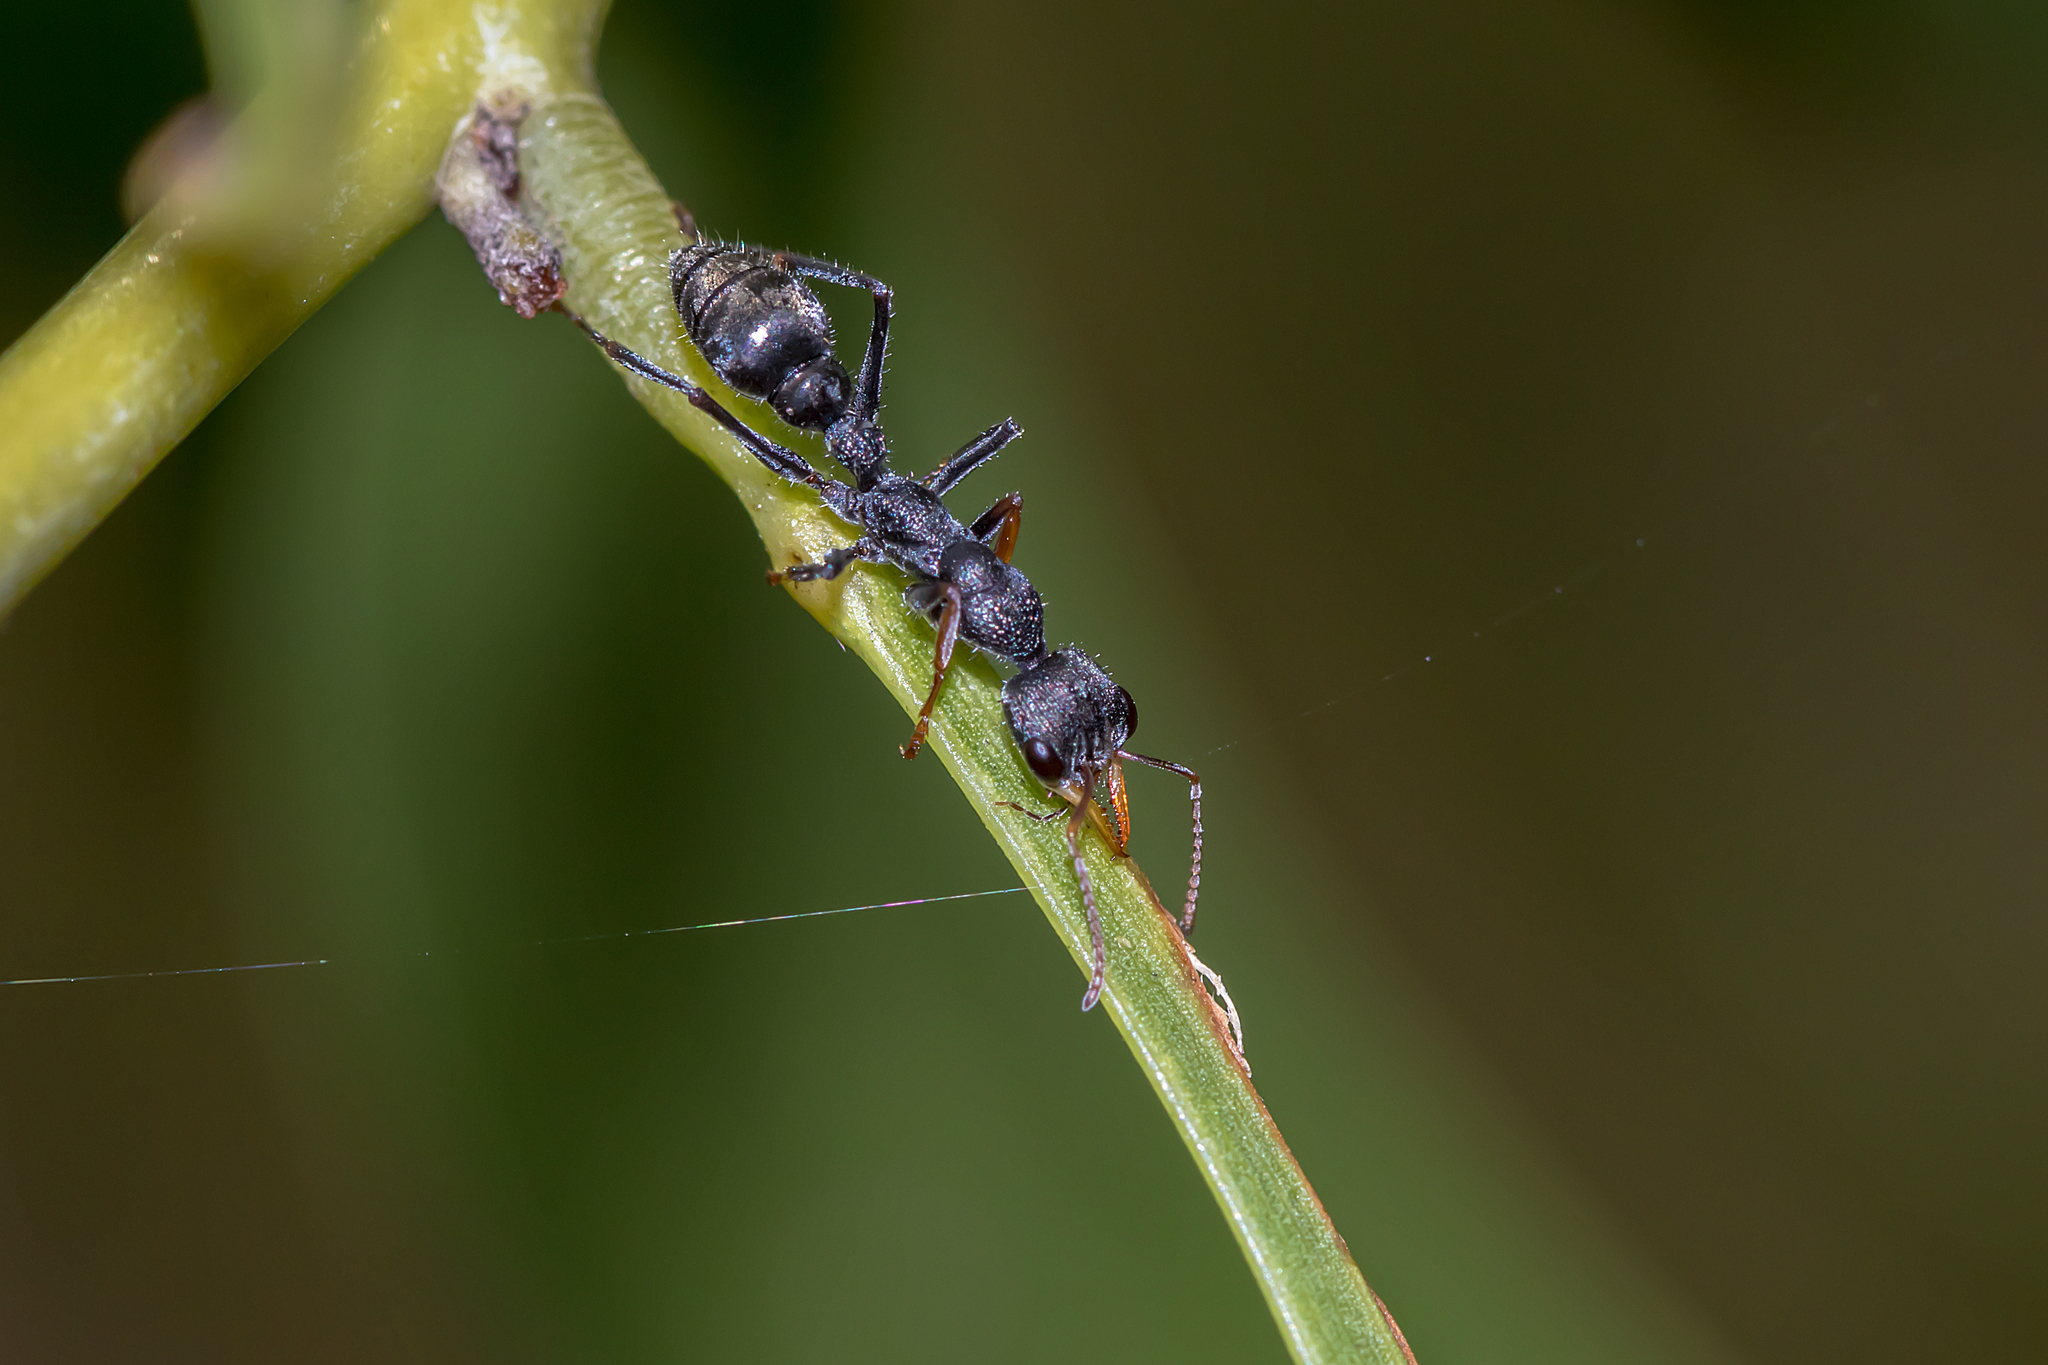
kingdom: Animalia
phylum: Arthropoda
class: Insecta
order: Hymenoptera
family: Formicidae
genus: Myrmecia
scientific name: Myrmecia urens
